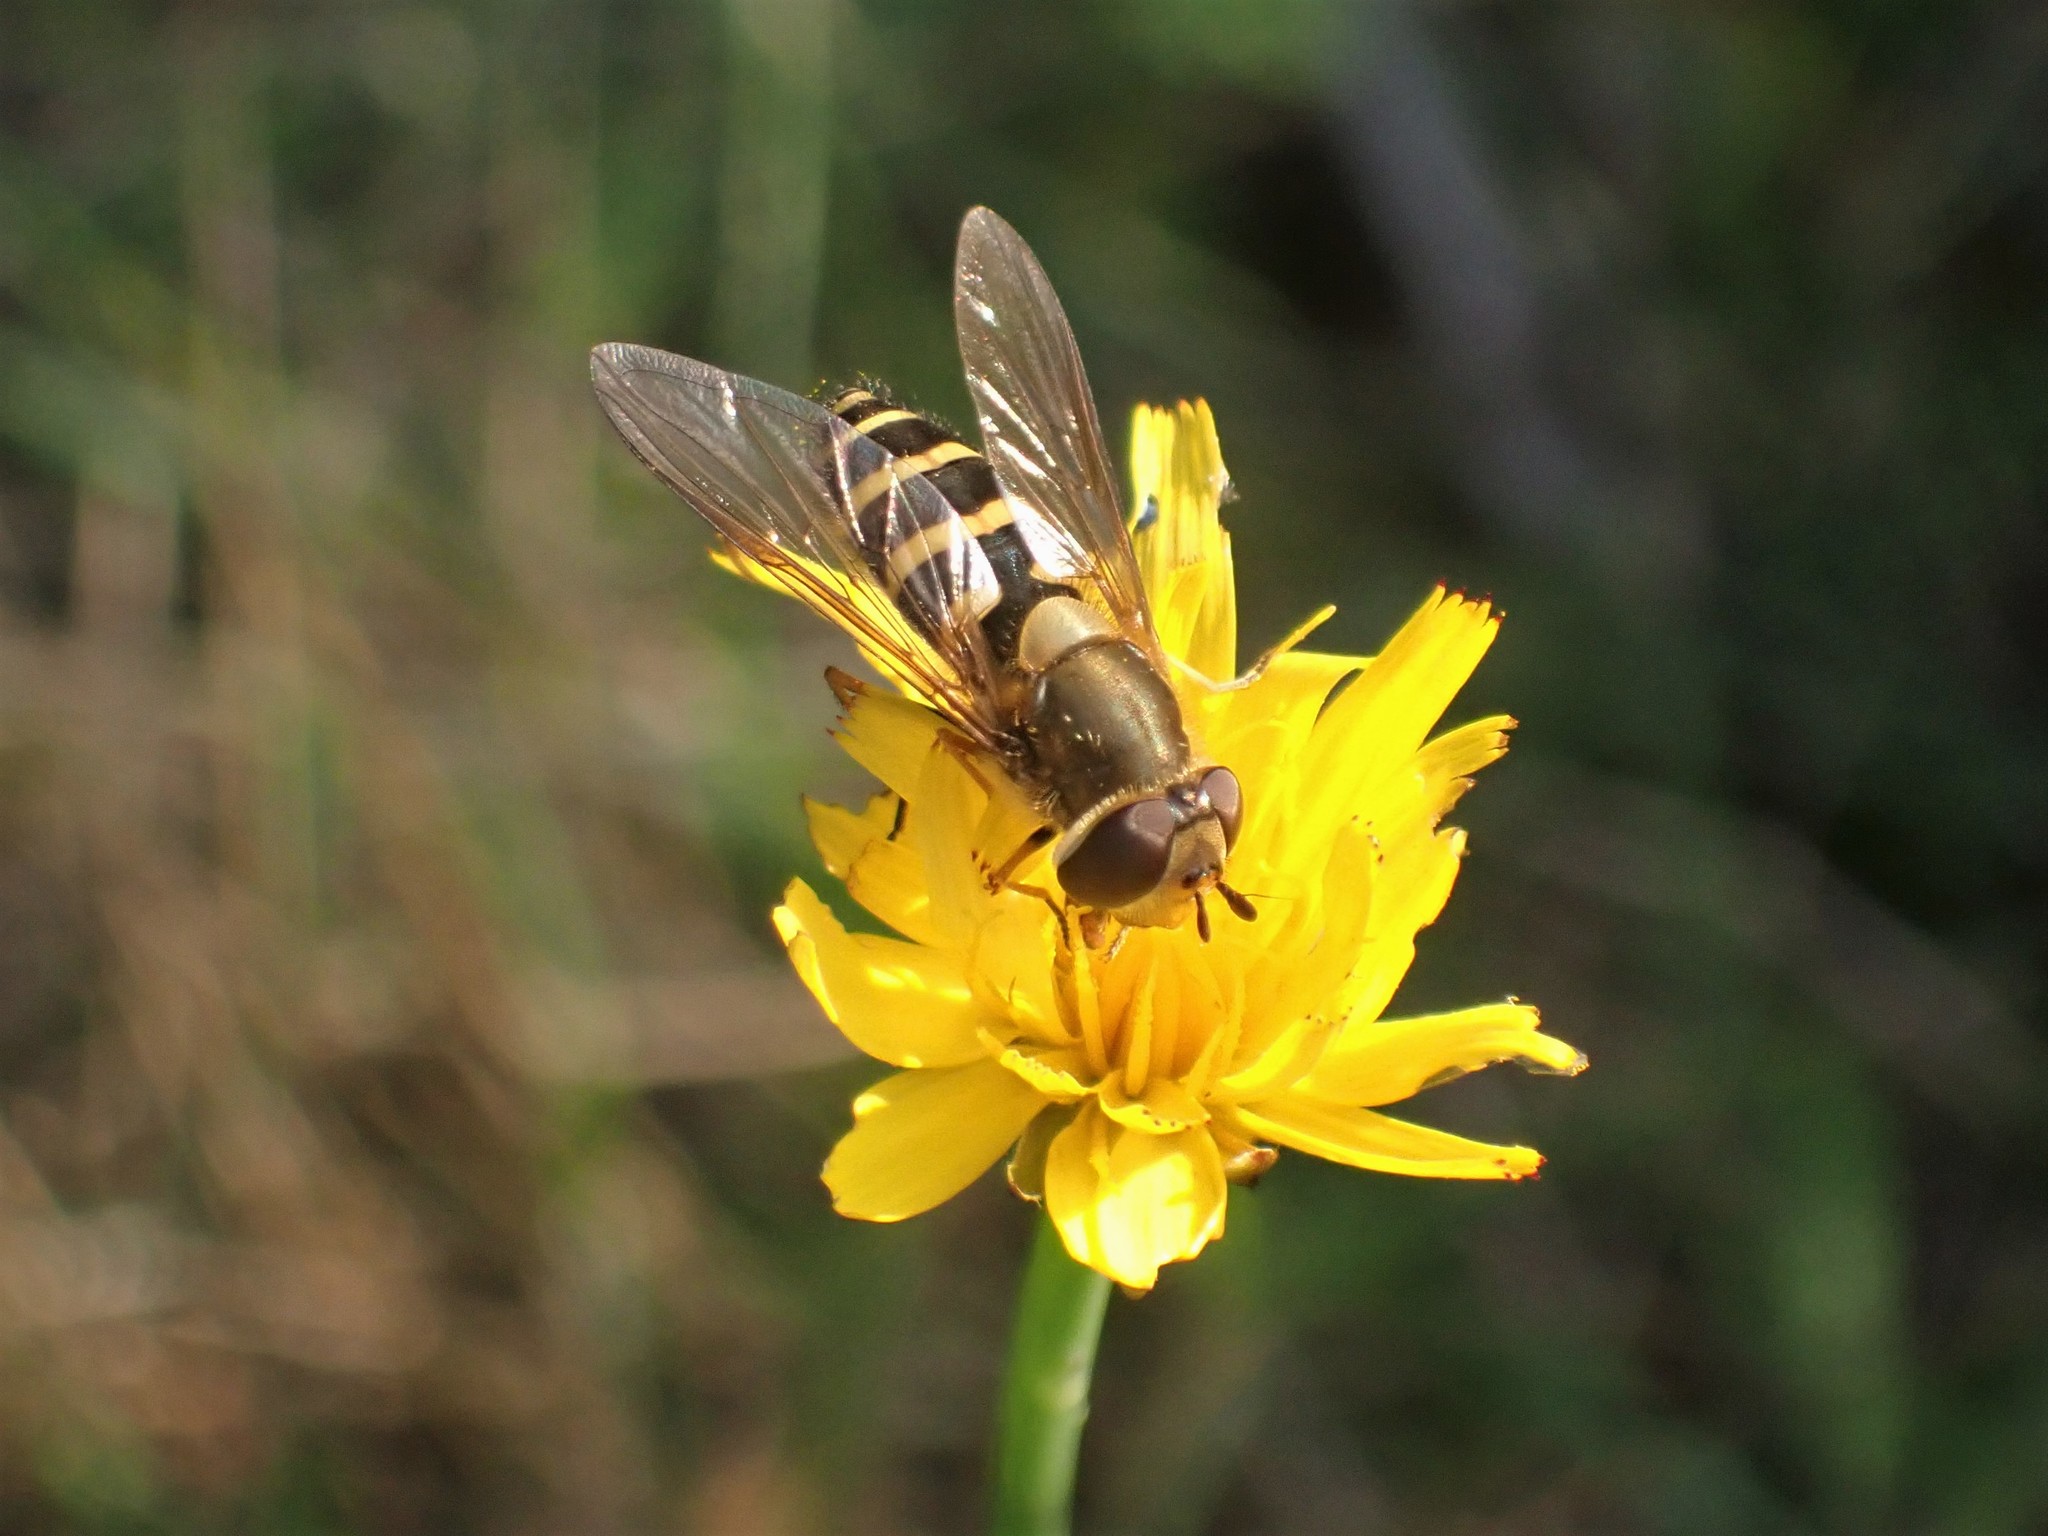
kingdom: Animalia
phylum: Arthropoda
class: Insecta
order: Diptera
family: Syrphidae
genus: Syrphus
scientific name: Syrphus
